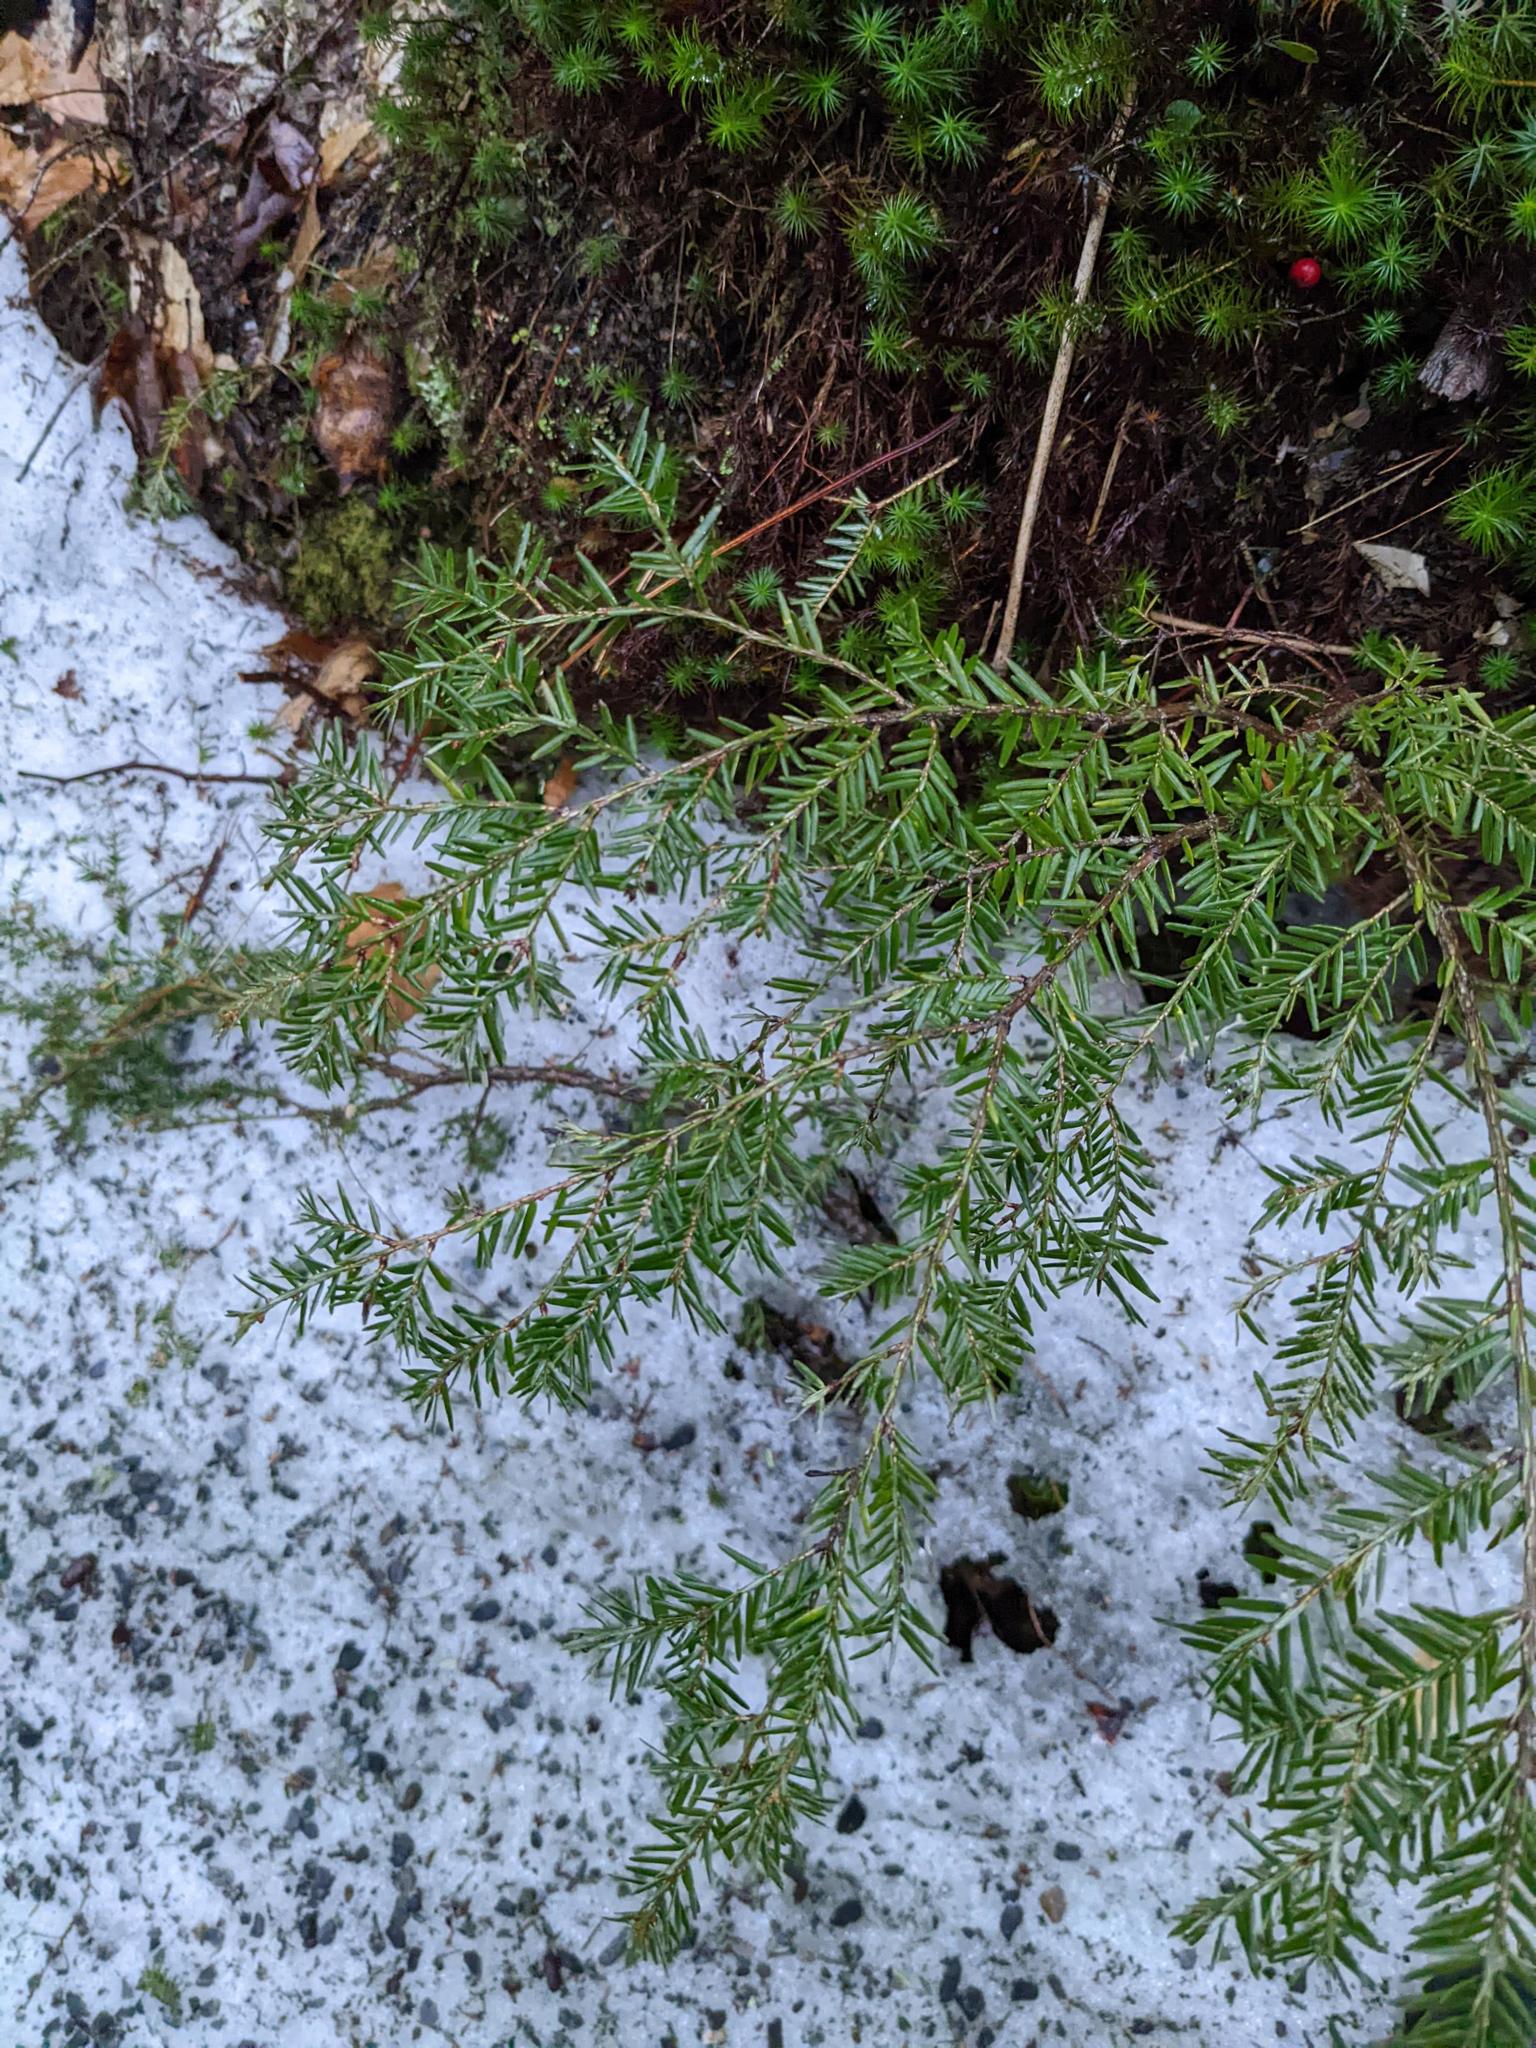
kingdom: Plantae
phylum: Tracheophyta
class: Pinopsida
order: Pinales
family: Pinaceae
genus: Tsuga
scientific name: Tsuga canadensis
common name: Eastern hemlock
